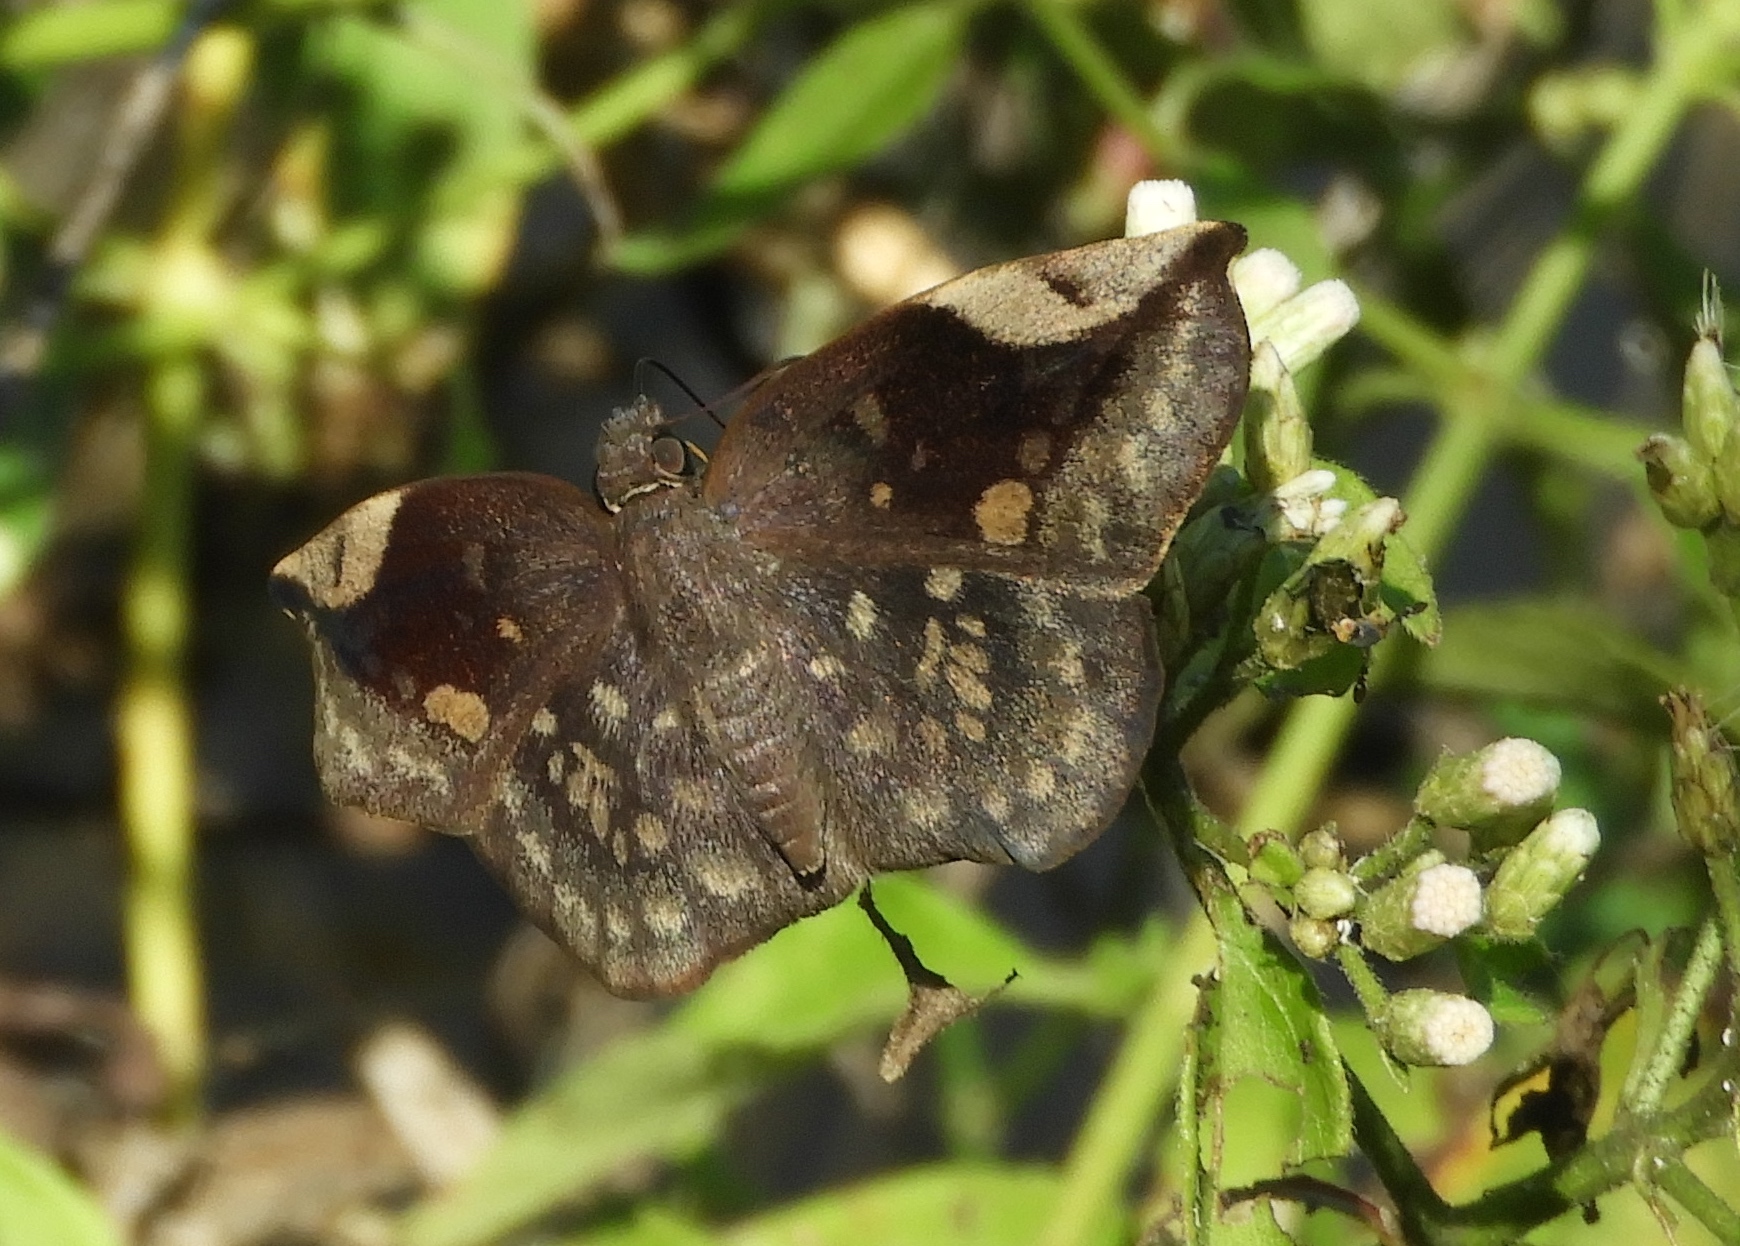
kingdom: Animalia
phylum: Arthropoda
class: Insecta
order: Lepidoptera
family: Hesperiidae
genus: Achlyodes
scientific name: Achlyodes thraso
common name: Sickle-winged skipper
